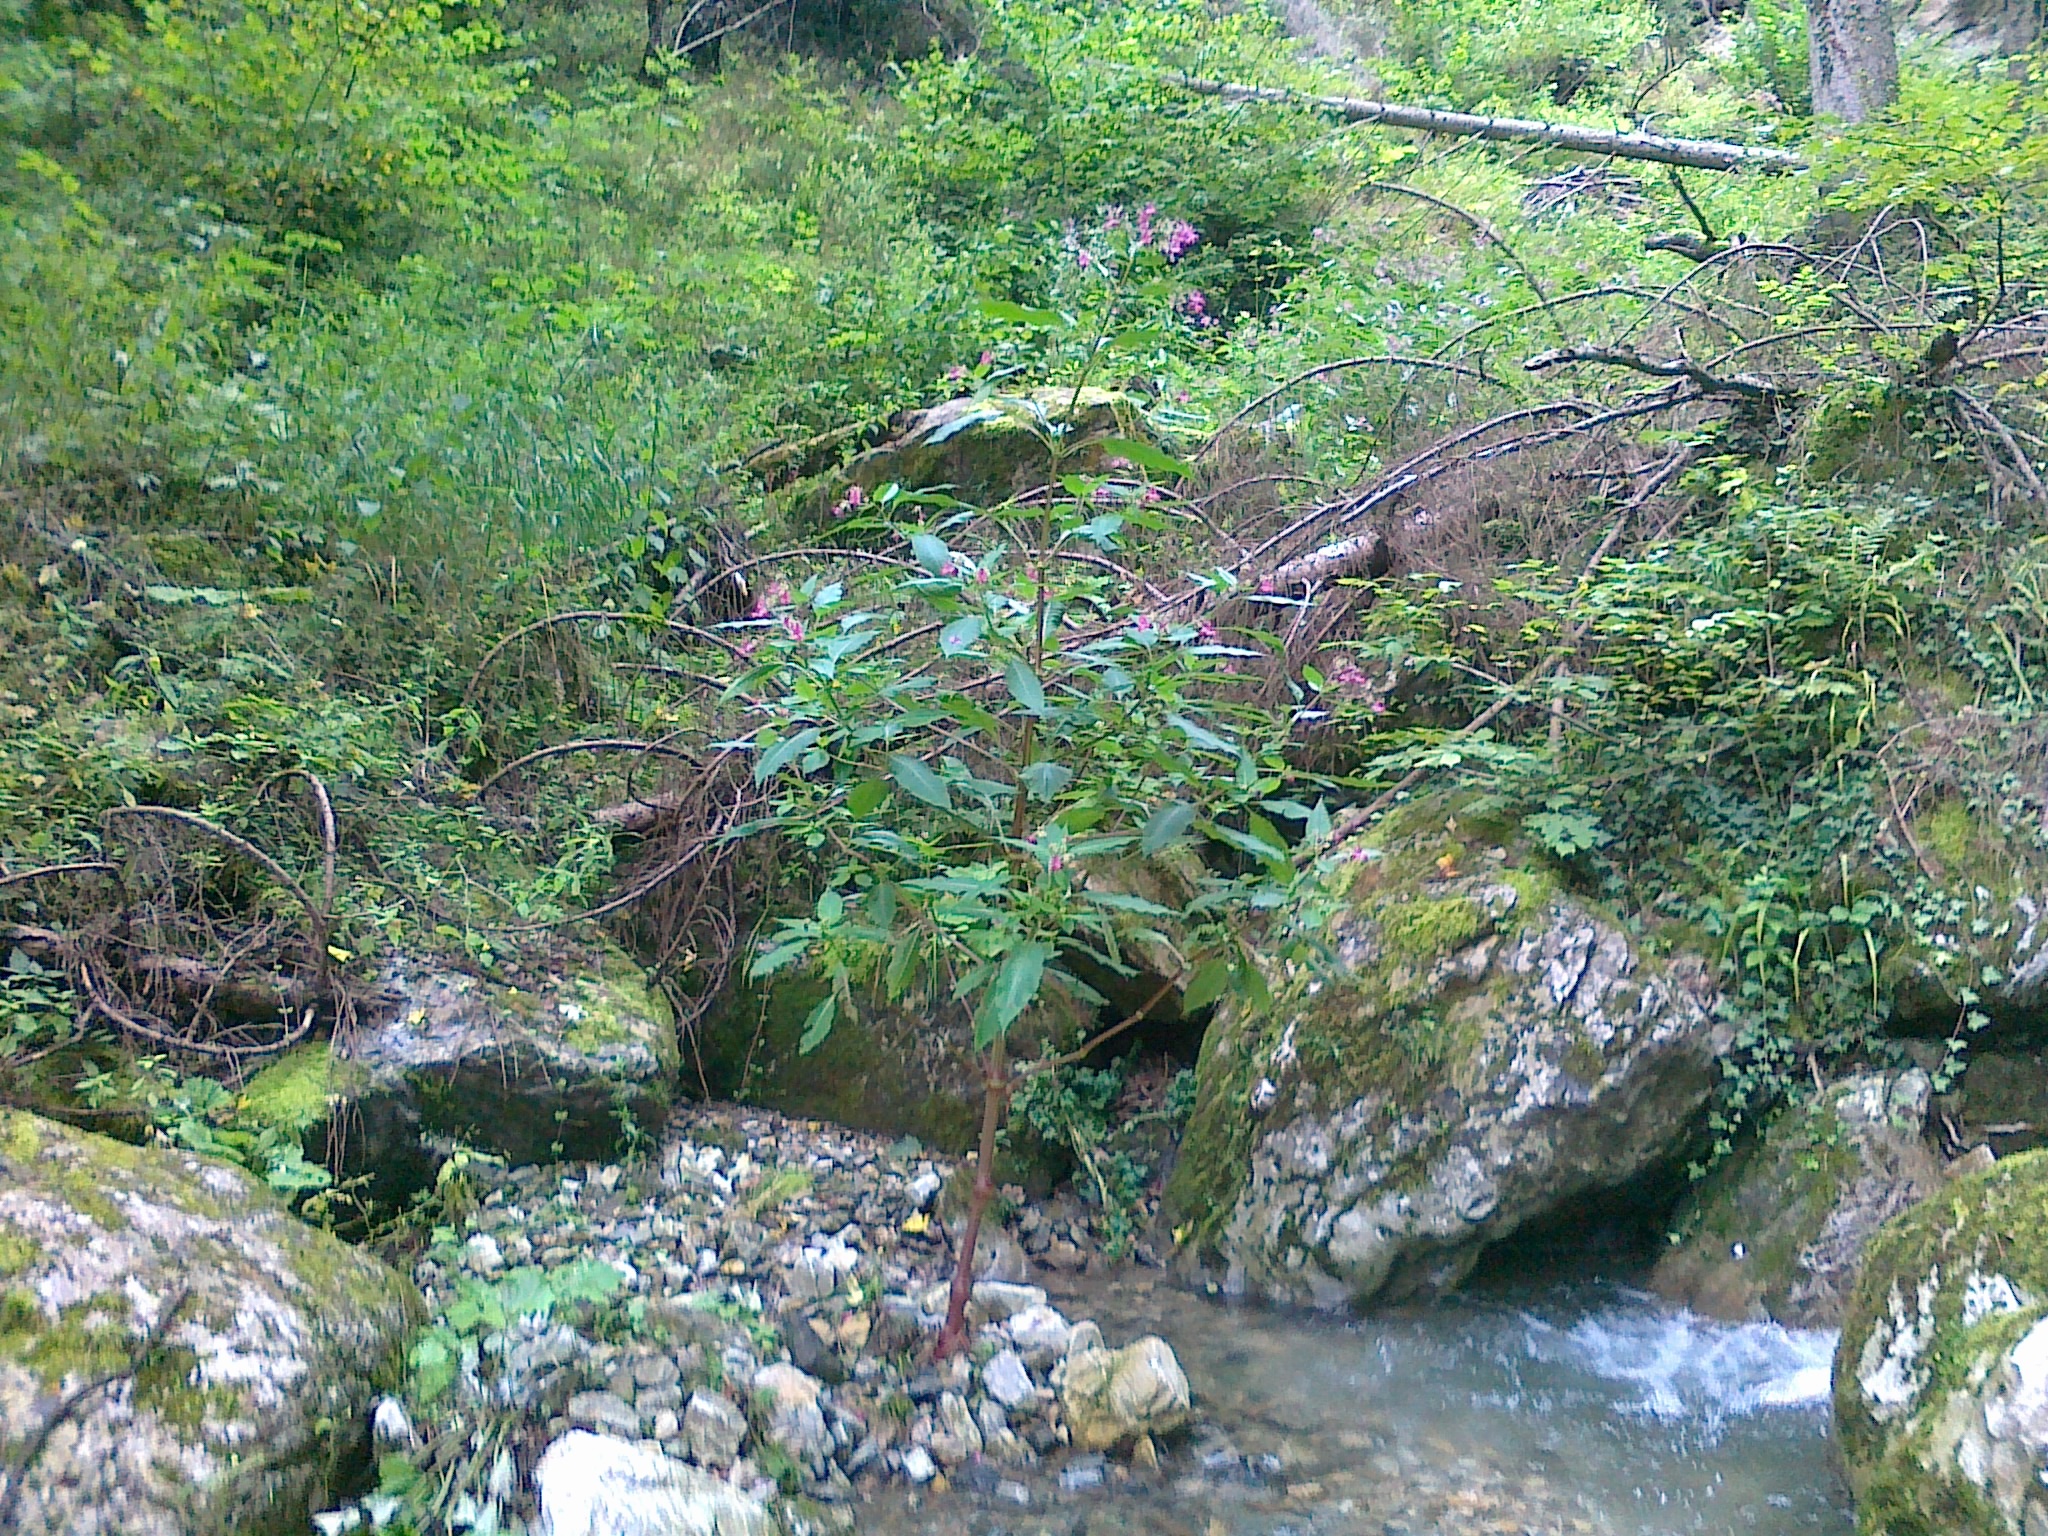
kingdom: Plantae
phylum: Tracheophyta
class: Magnoliopsida
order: Ericales
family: Balsaminaceae
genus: Impatiens
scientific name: Impatiens glandulifera
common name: Himalayan balsam
